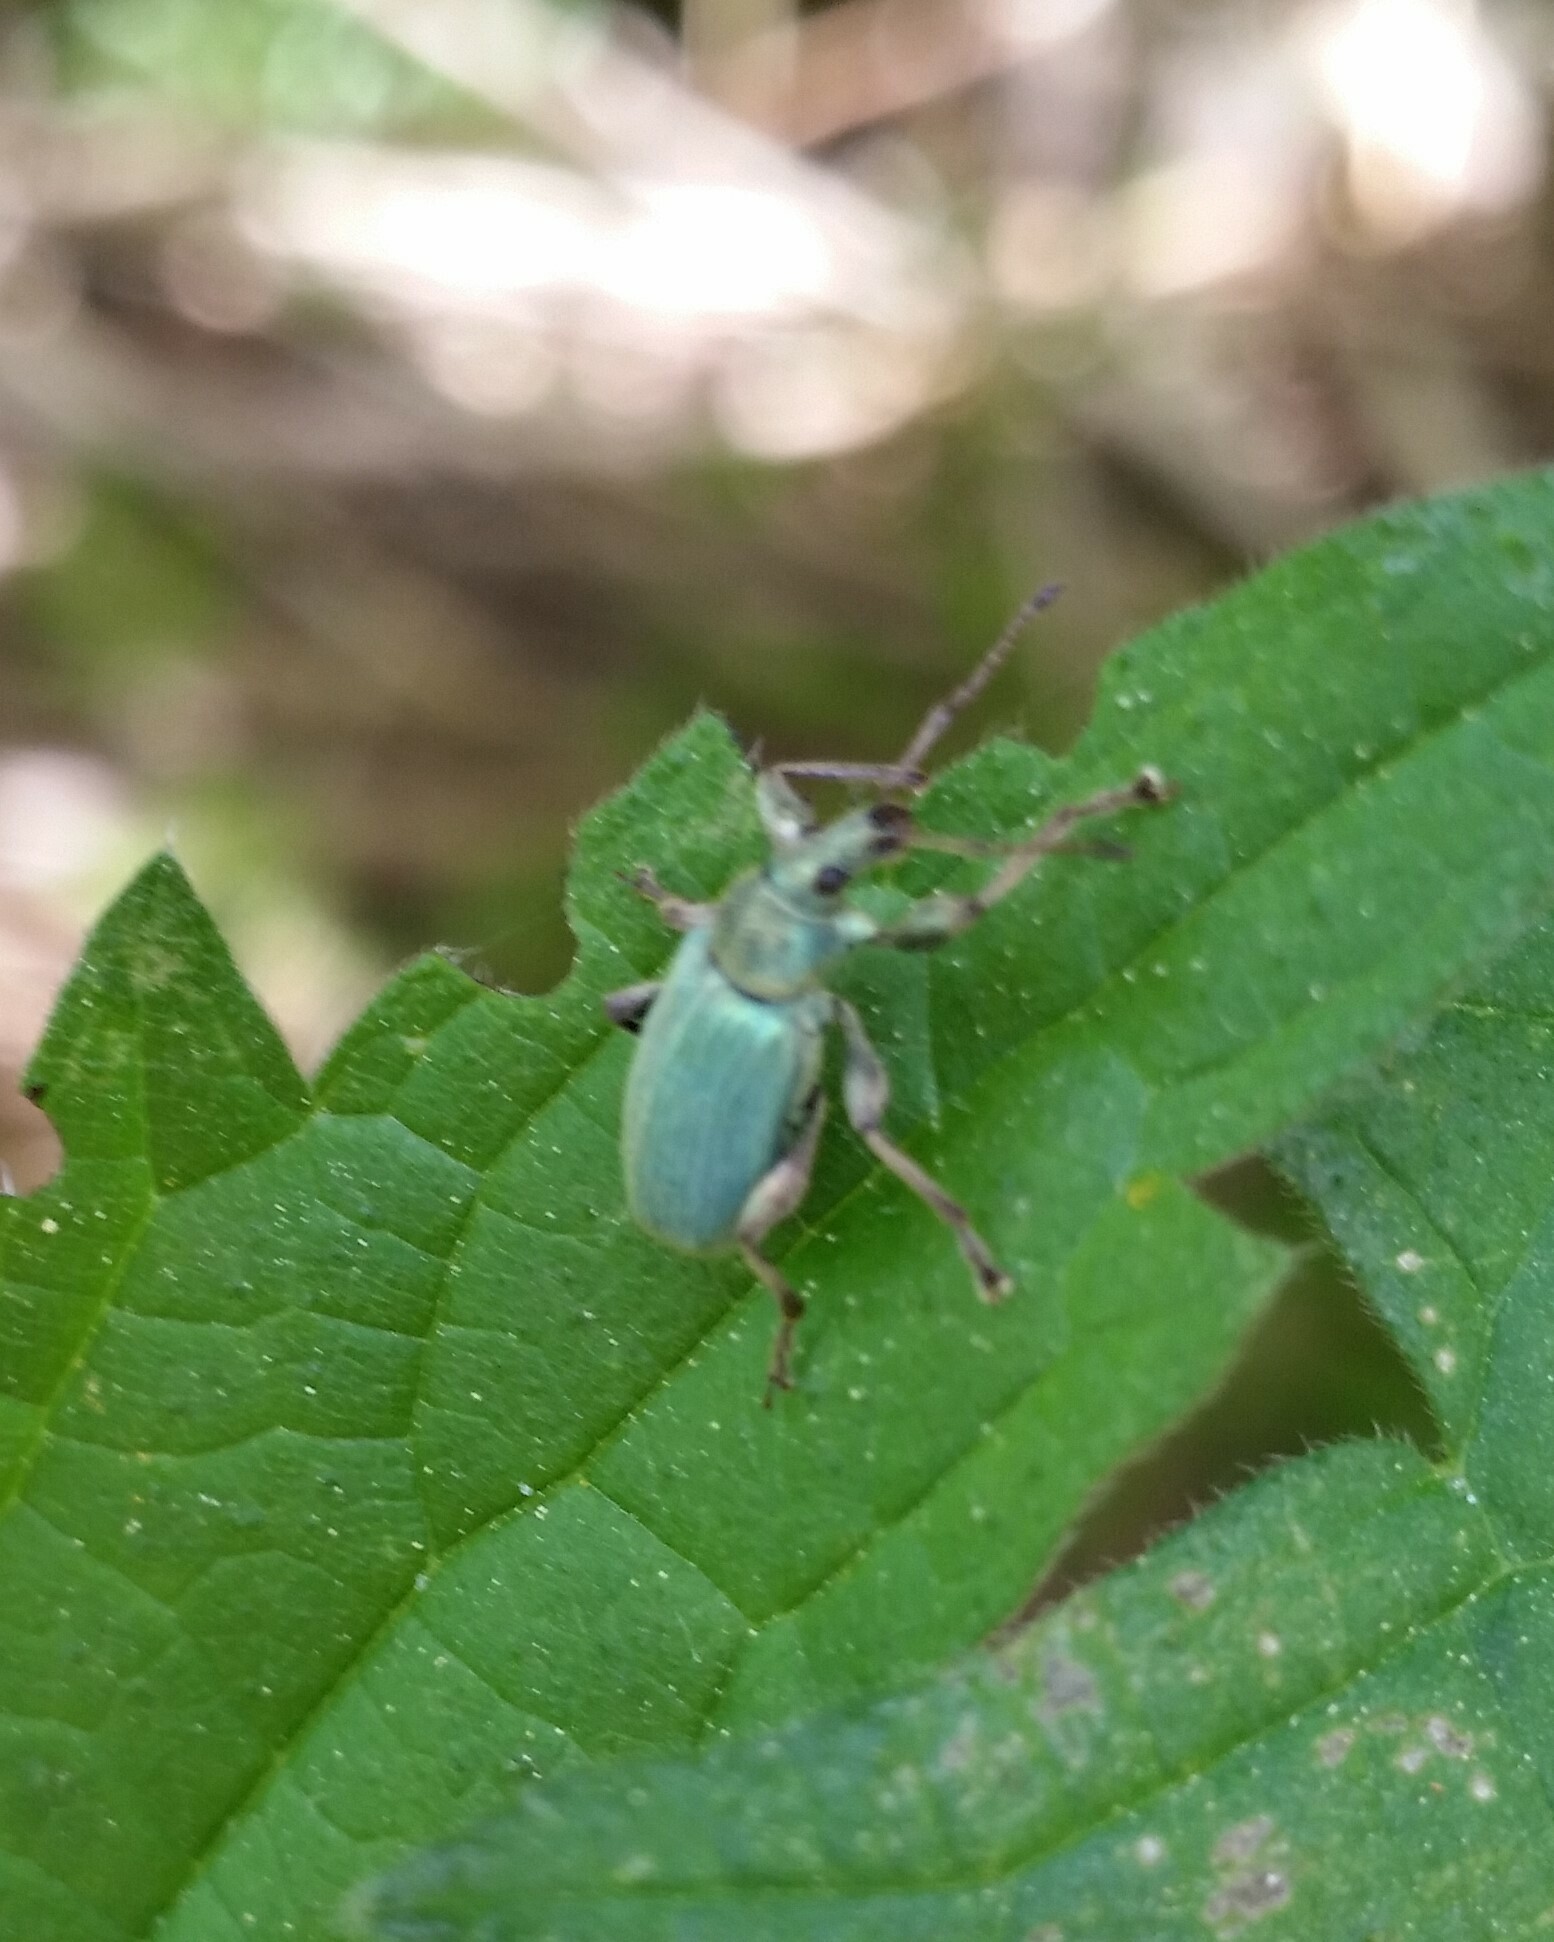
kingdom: Animalia
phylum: Arthropoda
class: Insecta
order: Coleoptera
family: Curculionidae
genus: Phyllobius
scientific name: Phyllobius pomaceus
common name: Green nettle weevil
